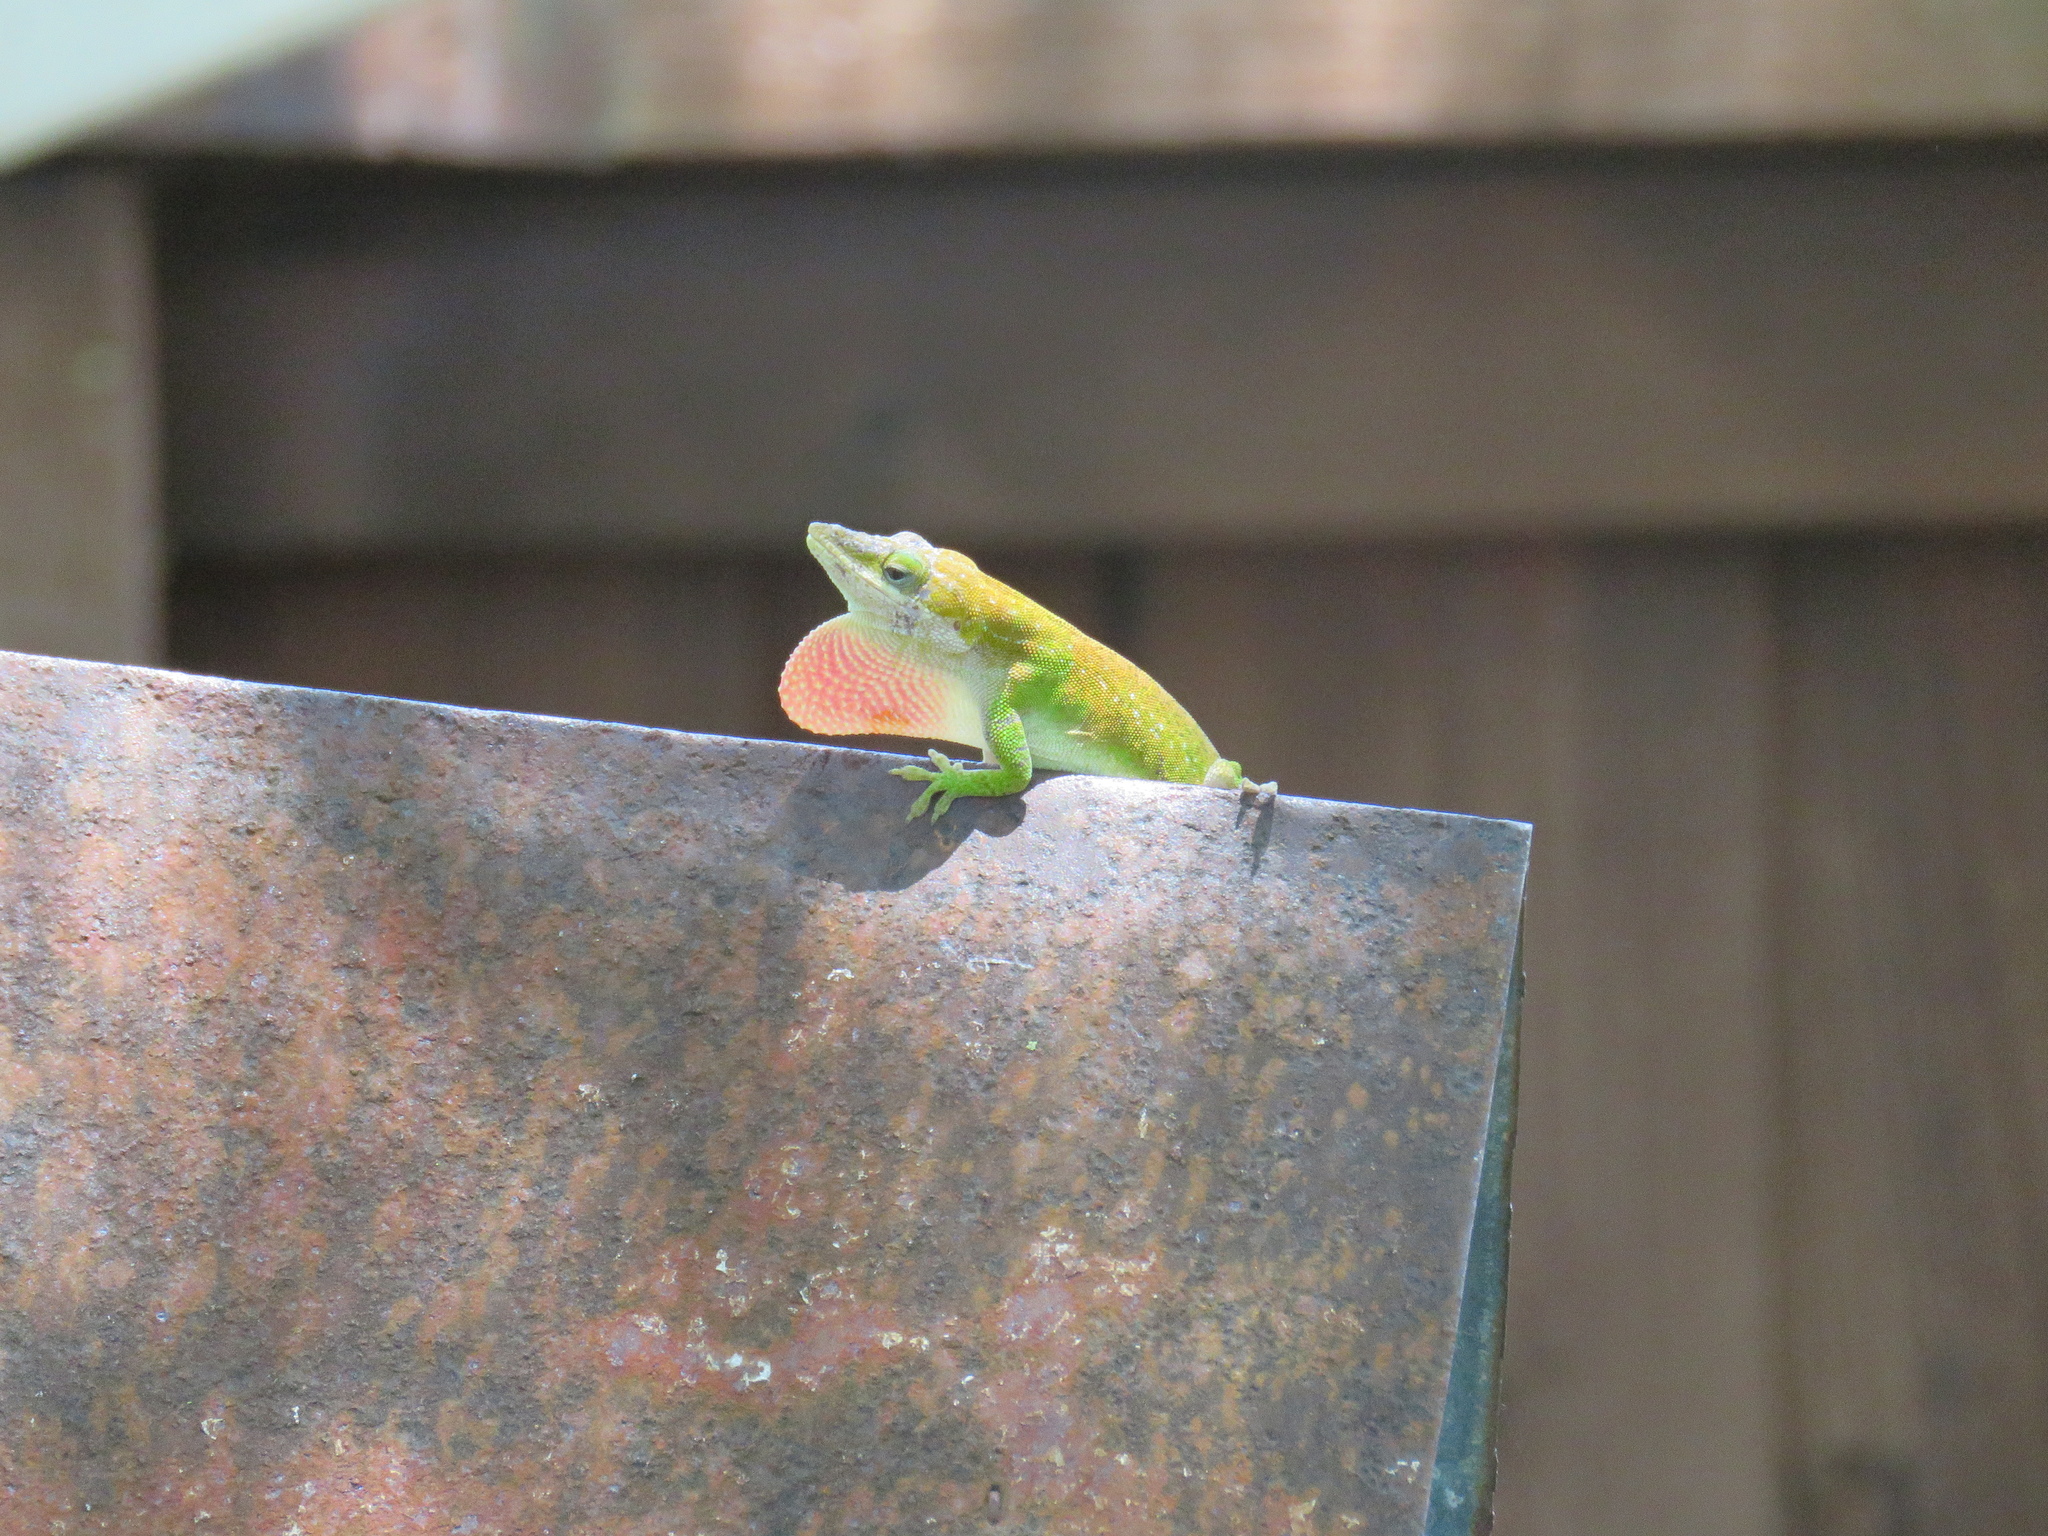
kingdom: Animalia
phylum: Chordata
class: Squamata
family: Dactyloidae
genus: Anolis
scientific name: Anolis carolinensis
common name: Green anole
